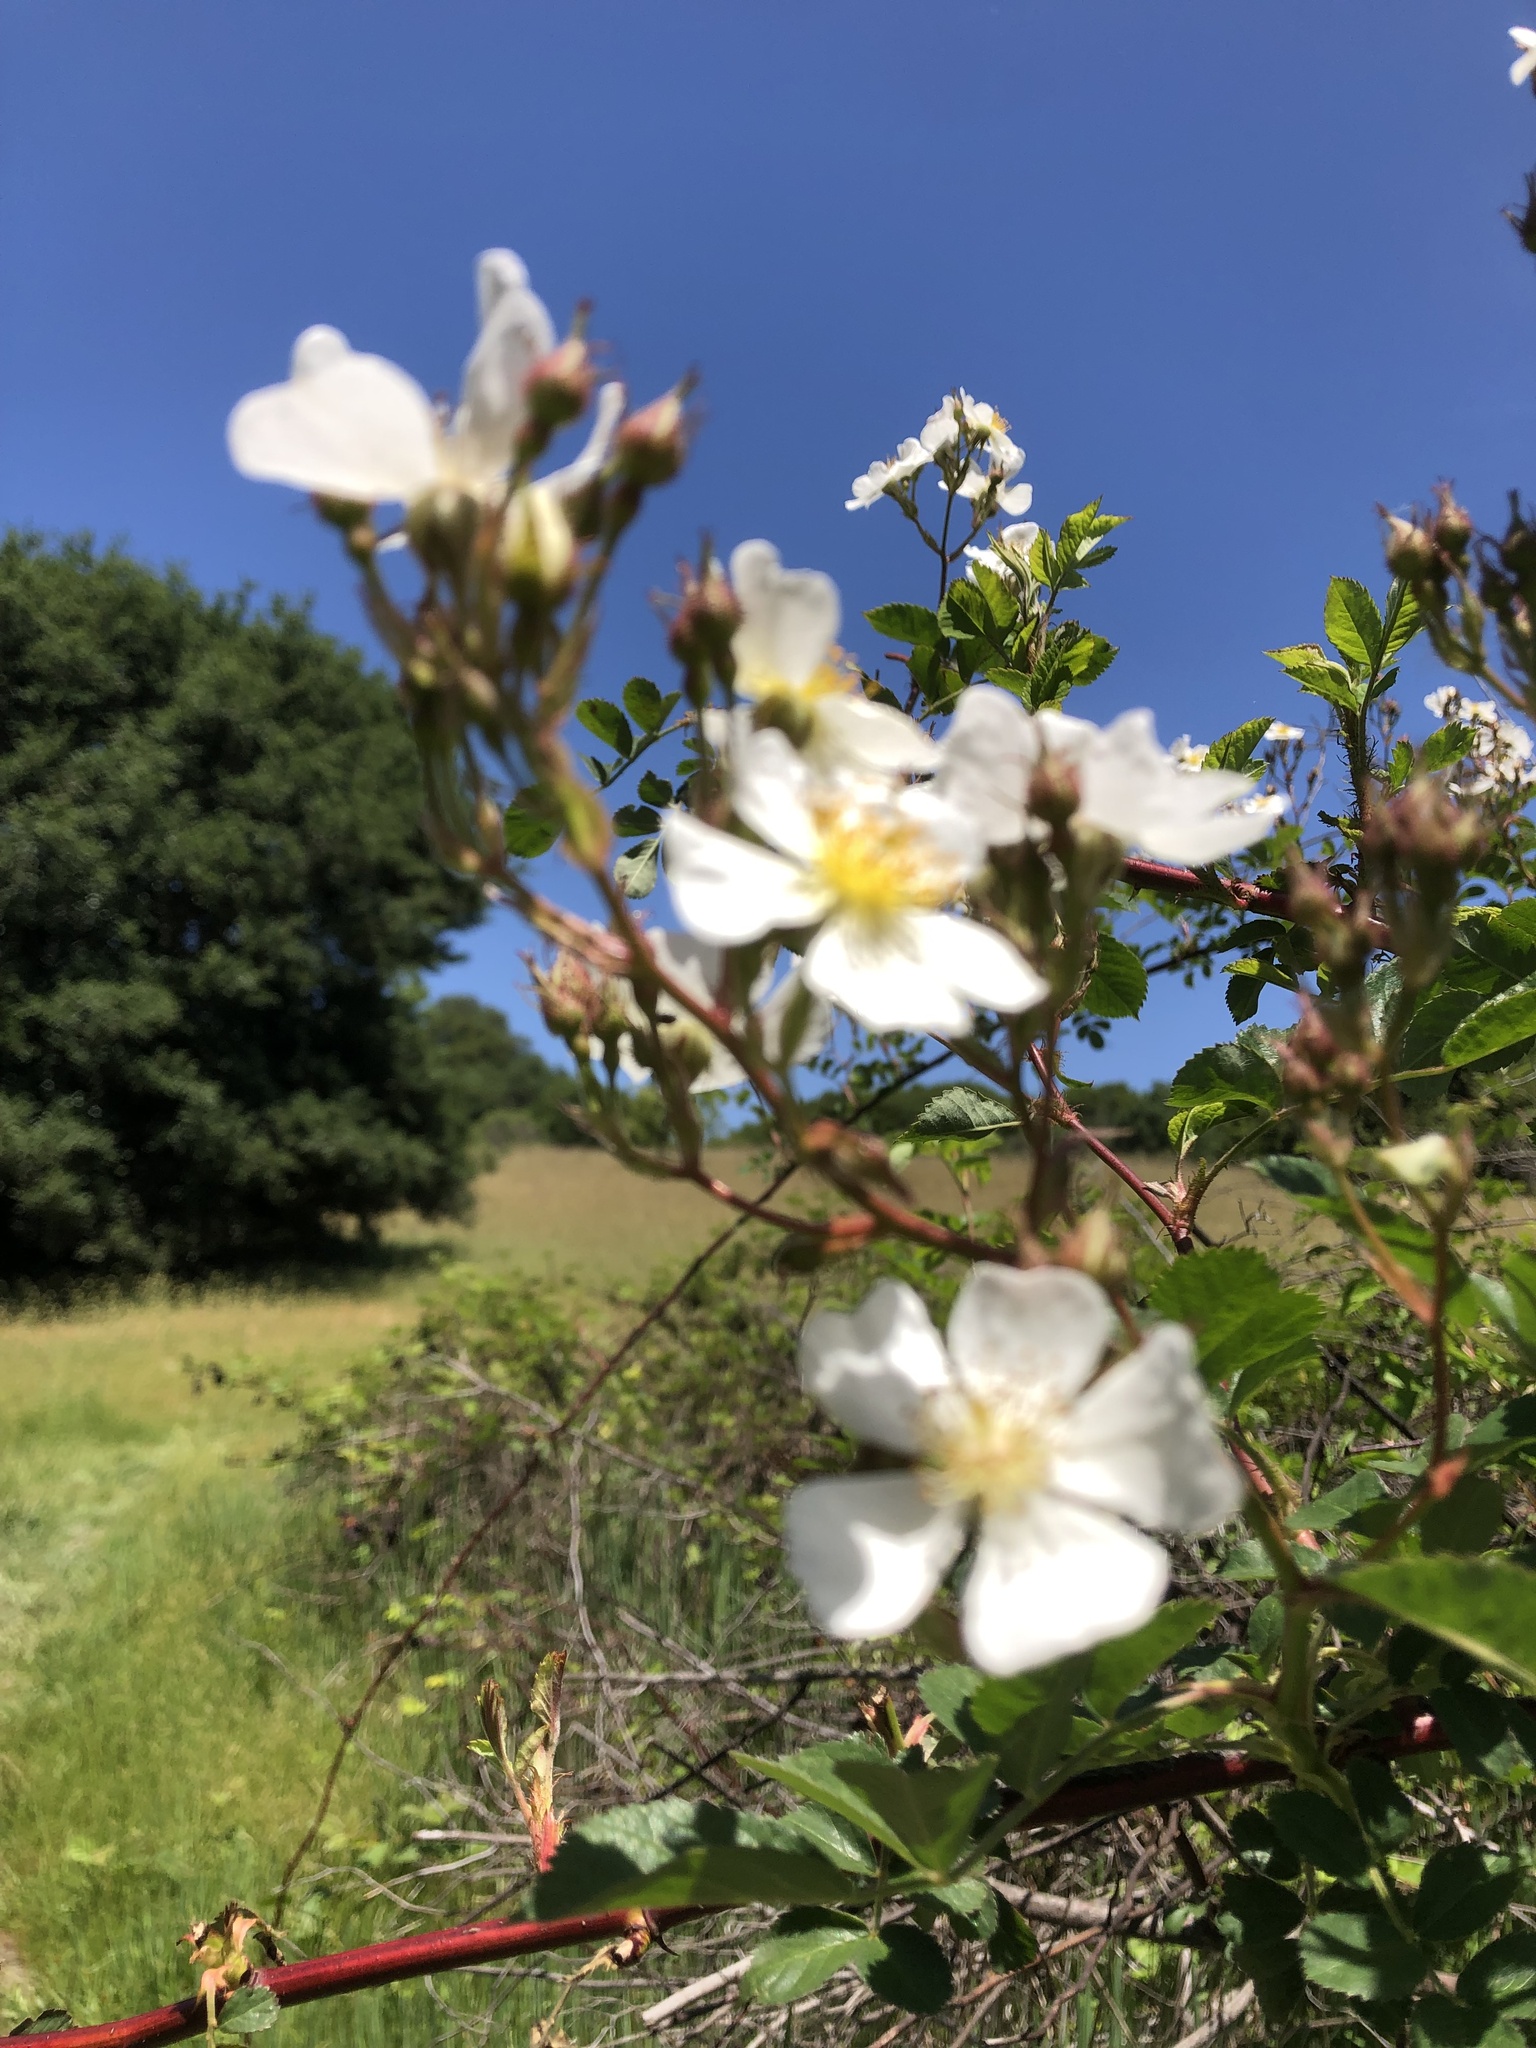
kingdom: Plantae
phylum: Tracheophyta
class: Magnoliopsida
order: Rosales
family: Rosaceae
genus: Rosa
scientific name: Rosa multiflora
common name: Multiflora rose
